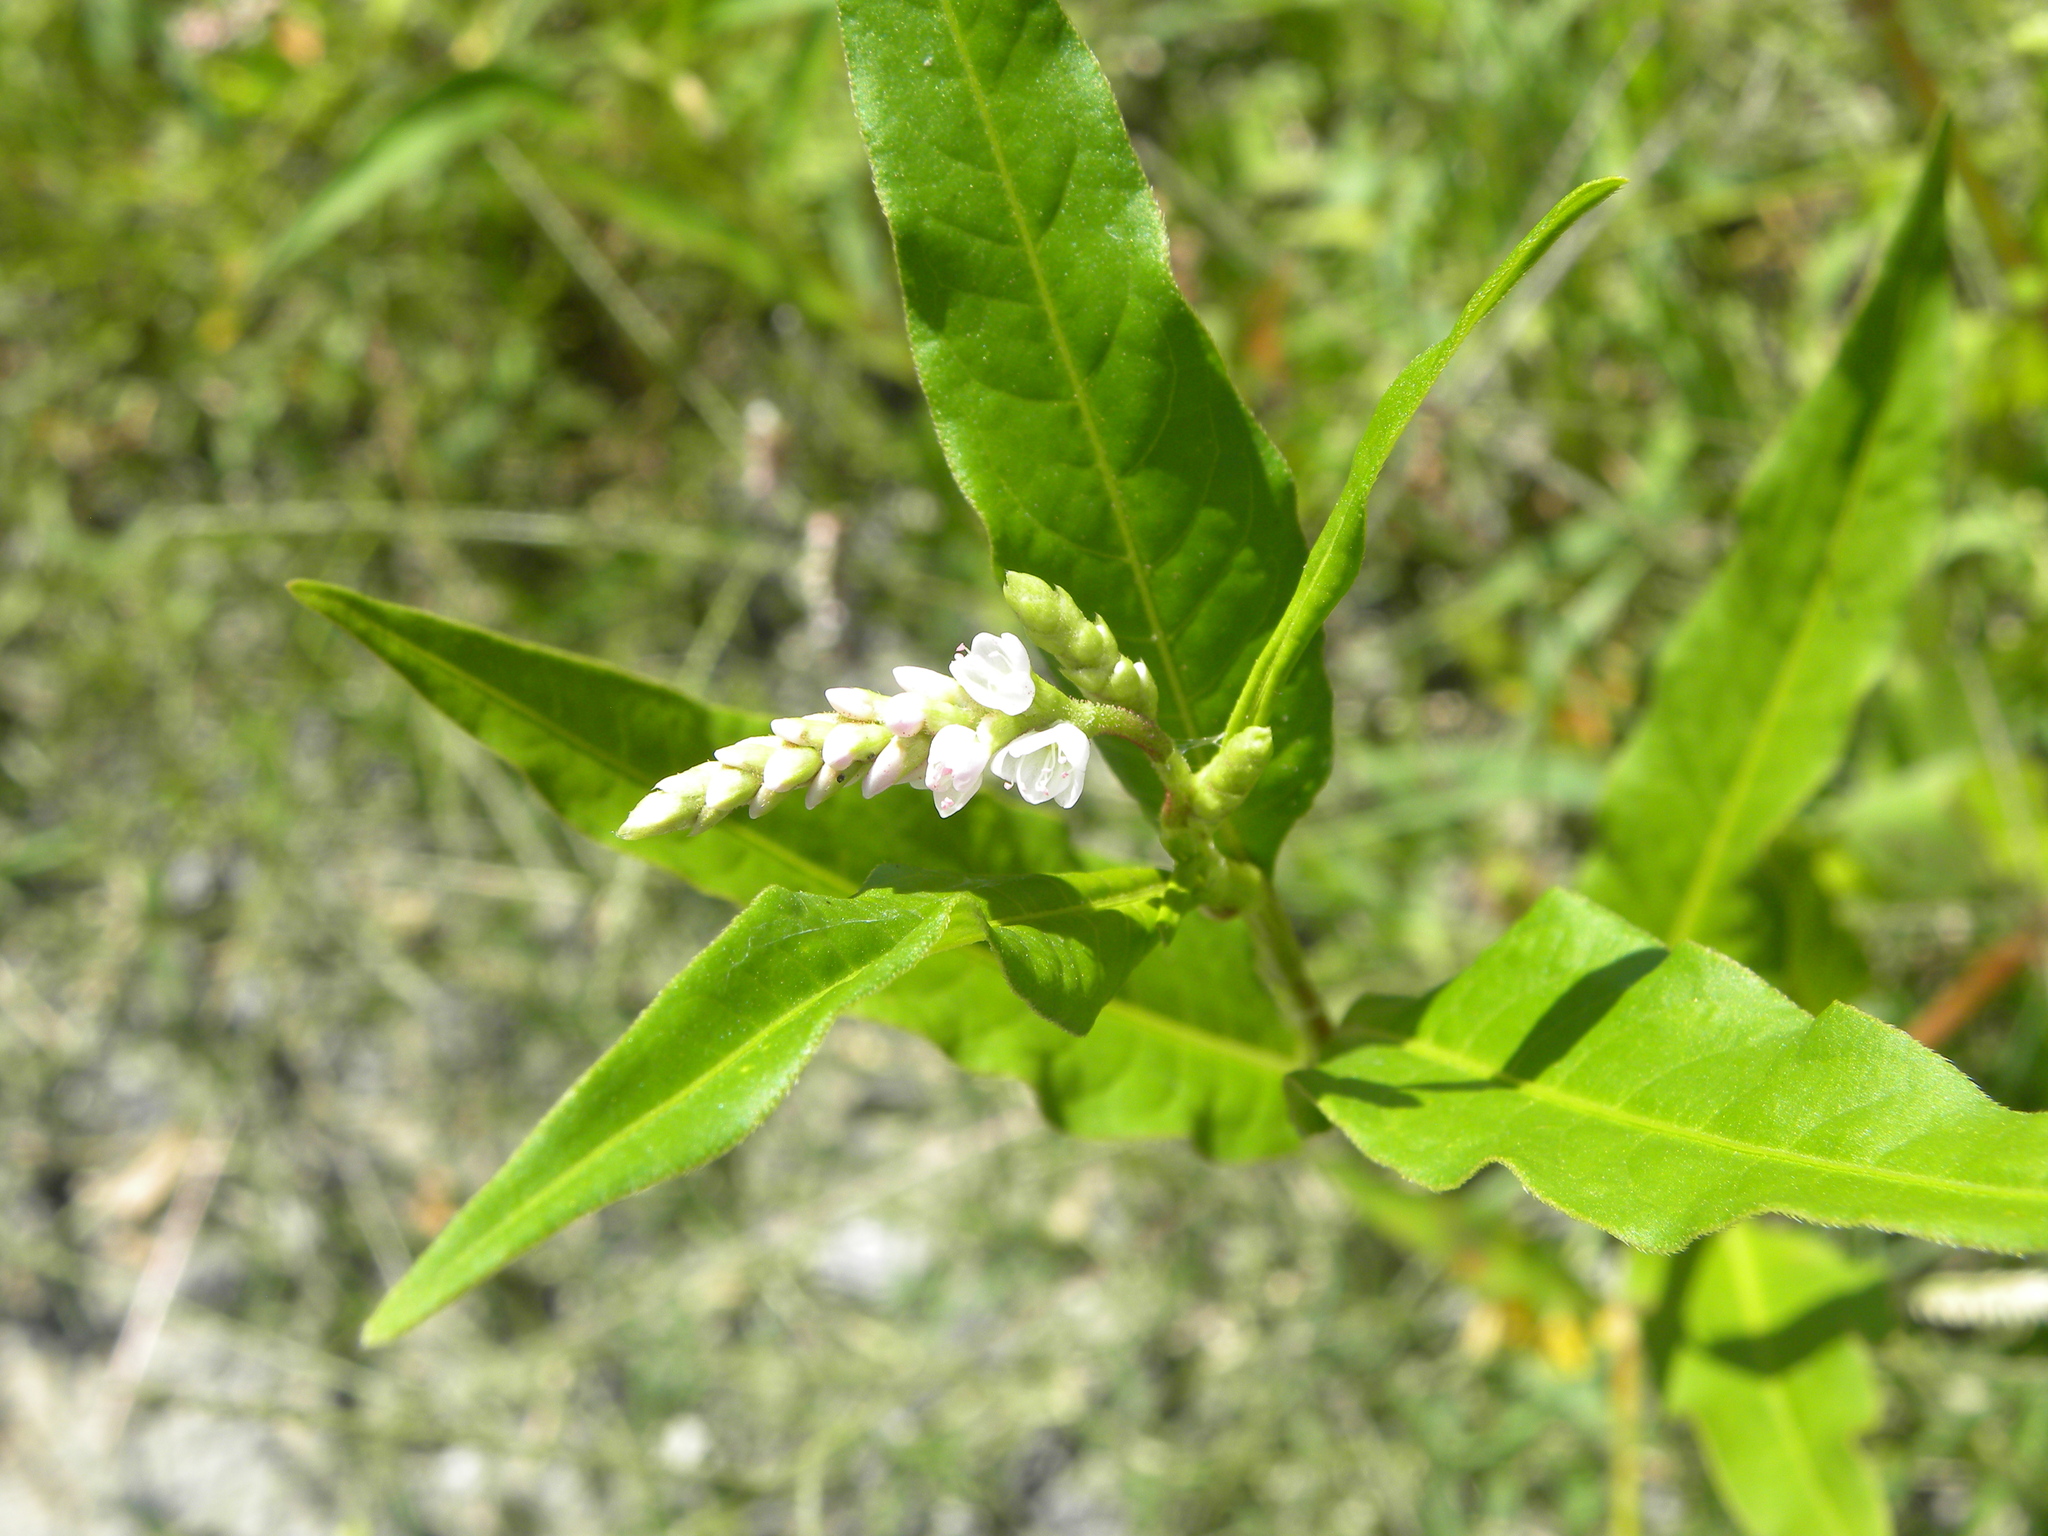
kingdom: Plantae
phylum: Tracheophyta
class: Magnoliopsida
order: Caryophyllales
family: Polygonaceae
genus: Persicaria
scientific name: Persicaria pensylvanica
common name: Pinkweed
